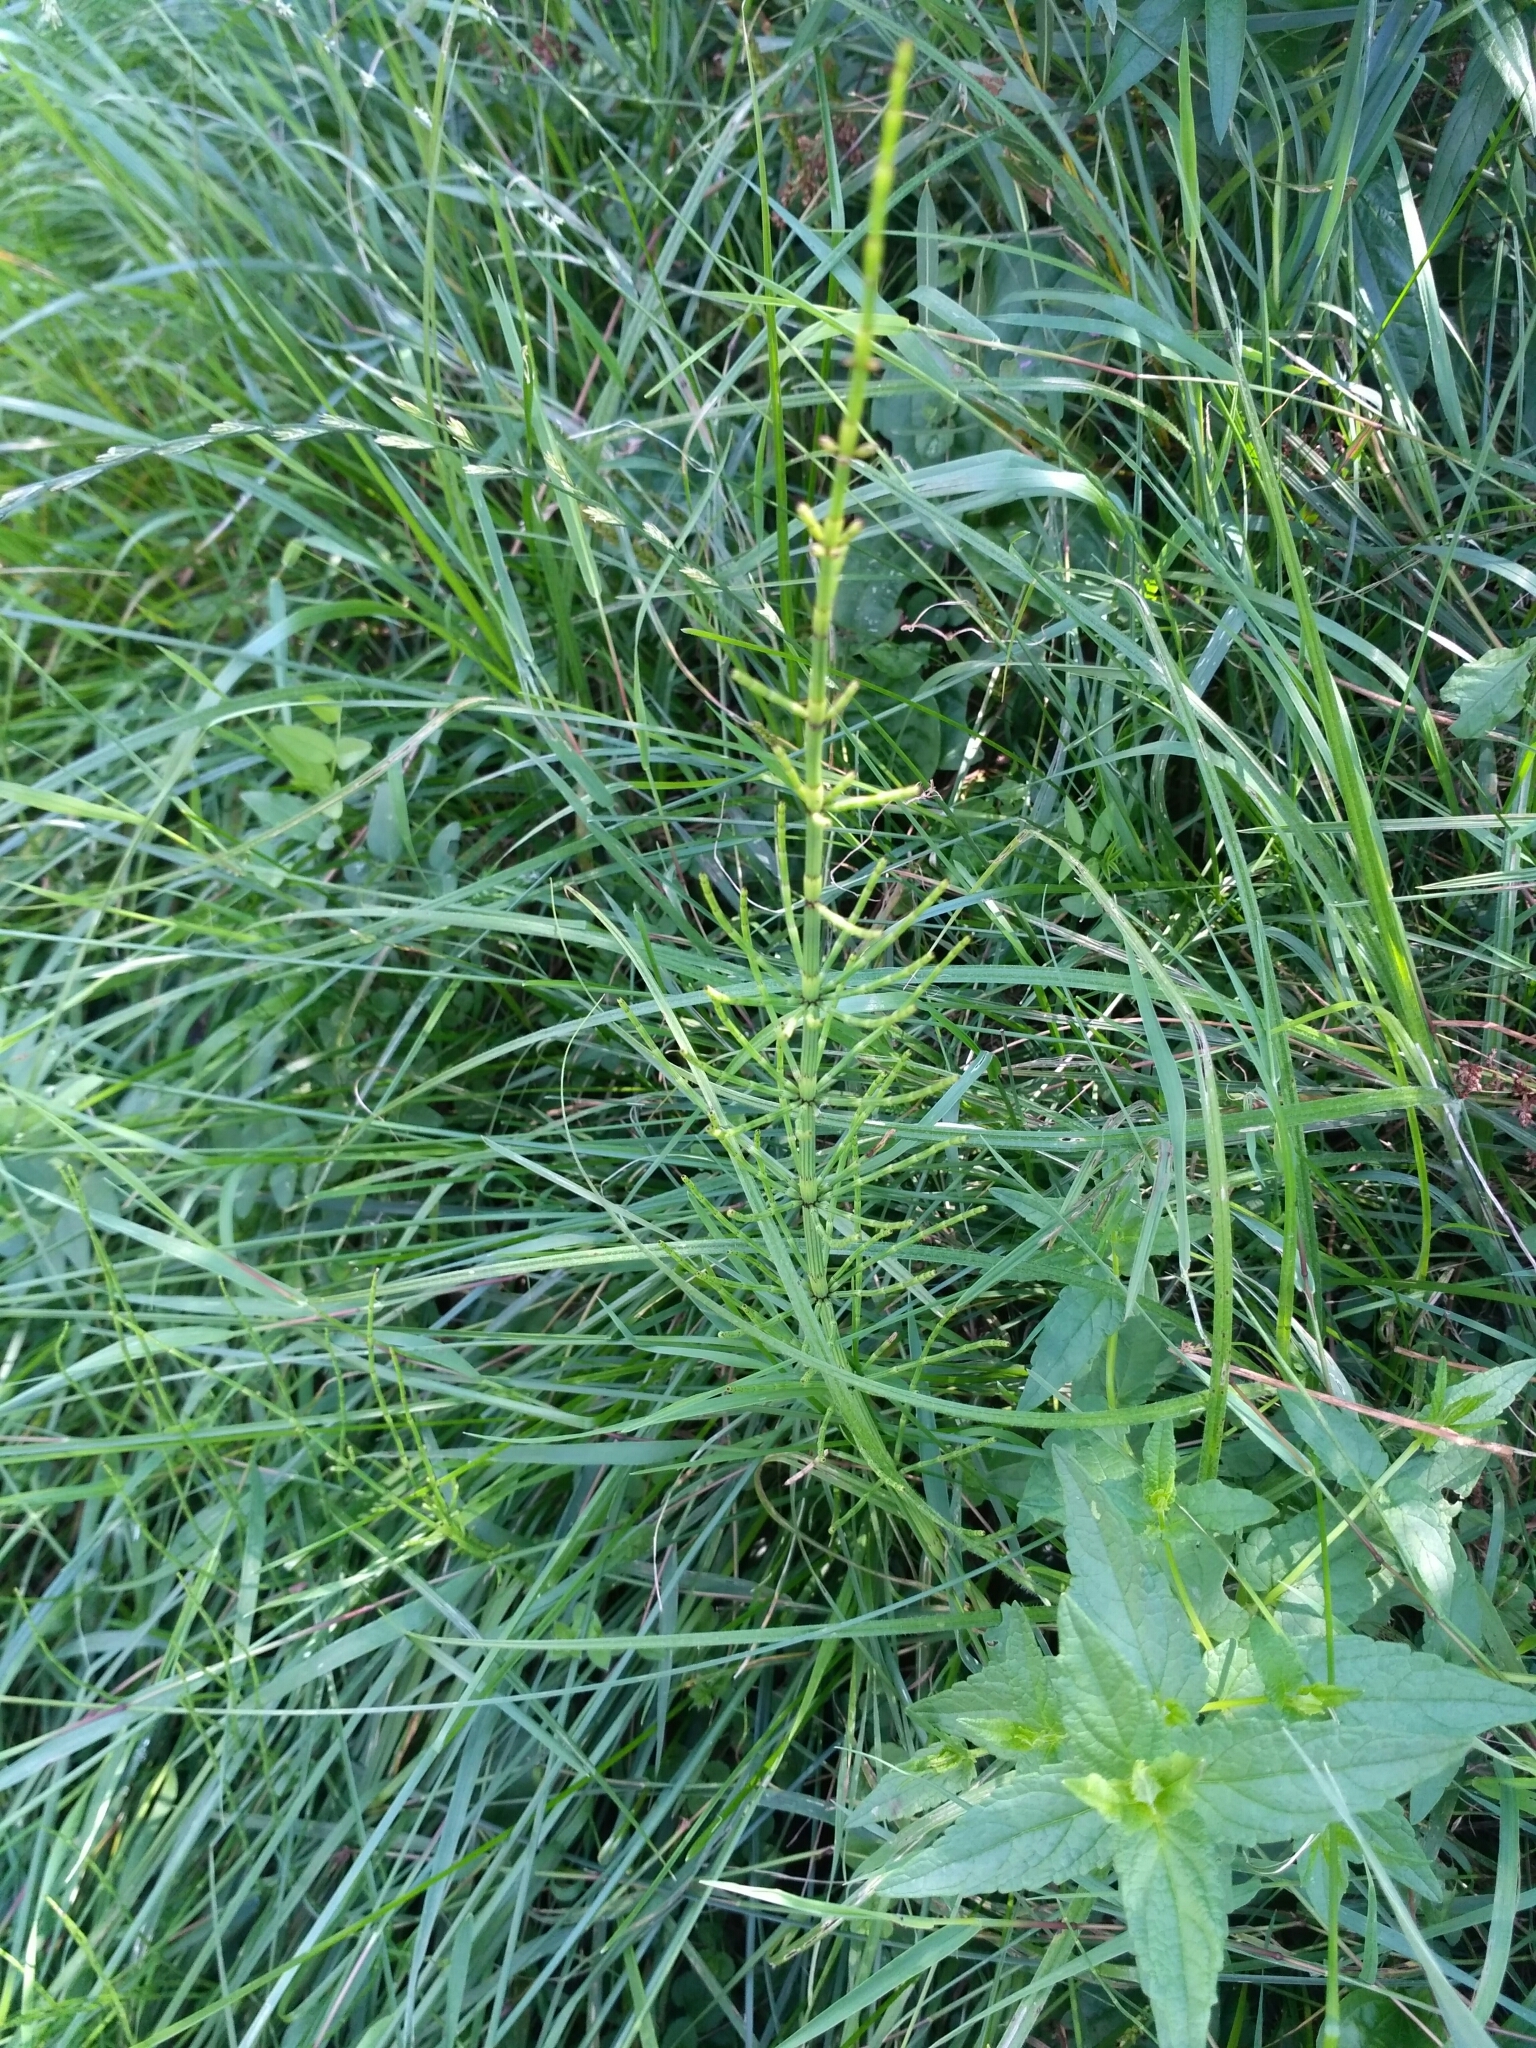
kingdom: Plantae
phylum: Tracheophyta
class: Polypodiopsida
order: Equisetales
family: Equisetaceae
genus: Equisetum
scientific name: Equisetum palustre
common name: Marsh horsetail
